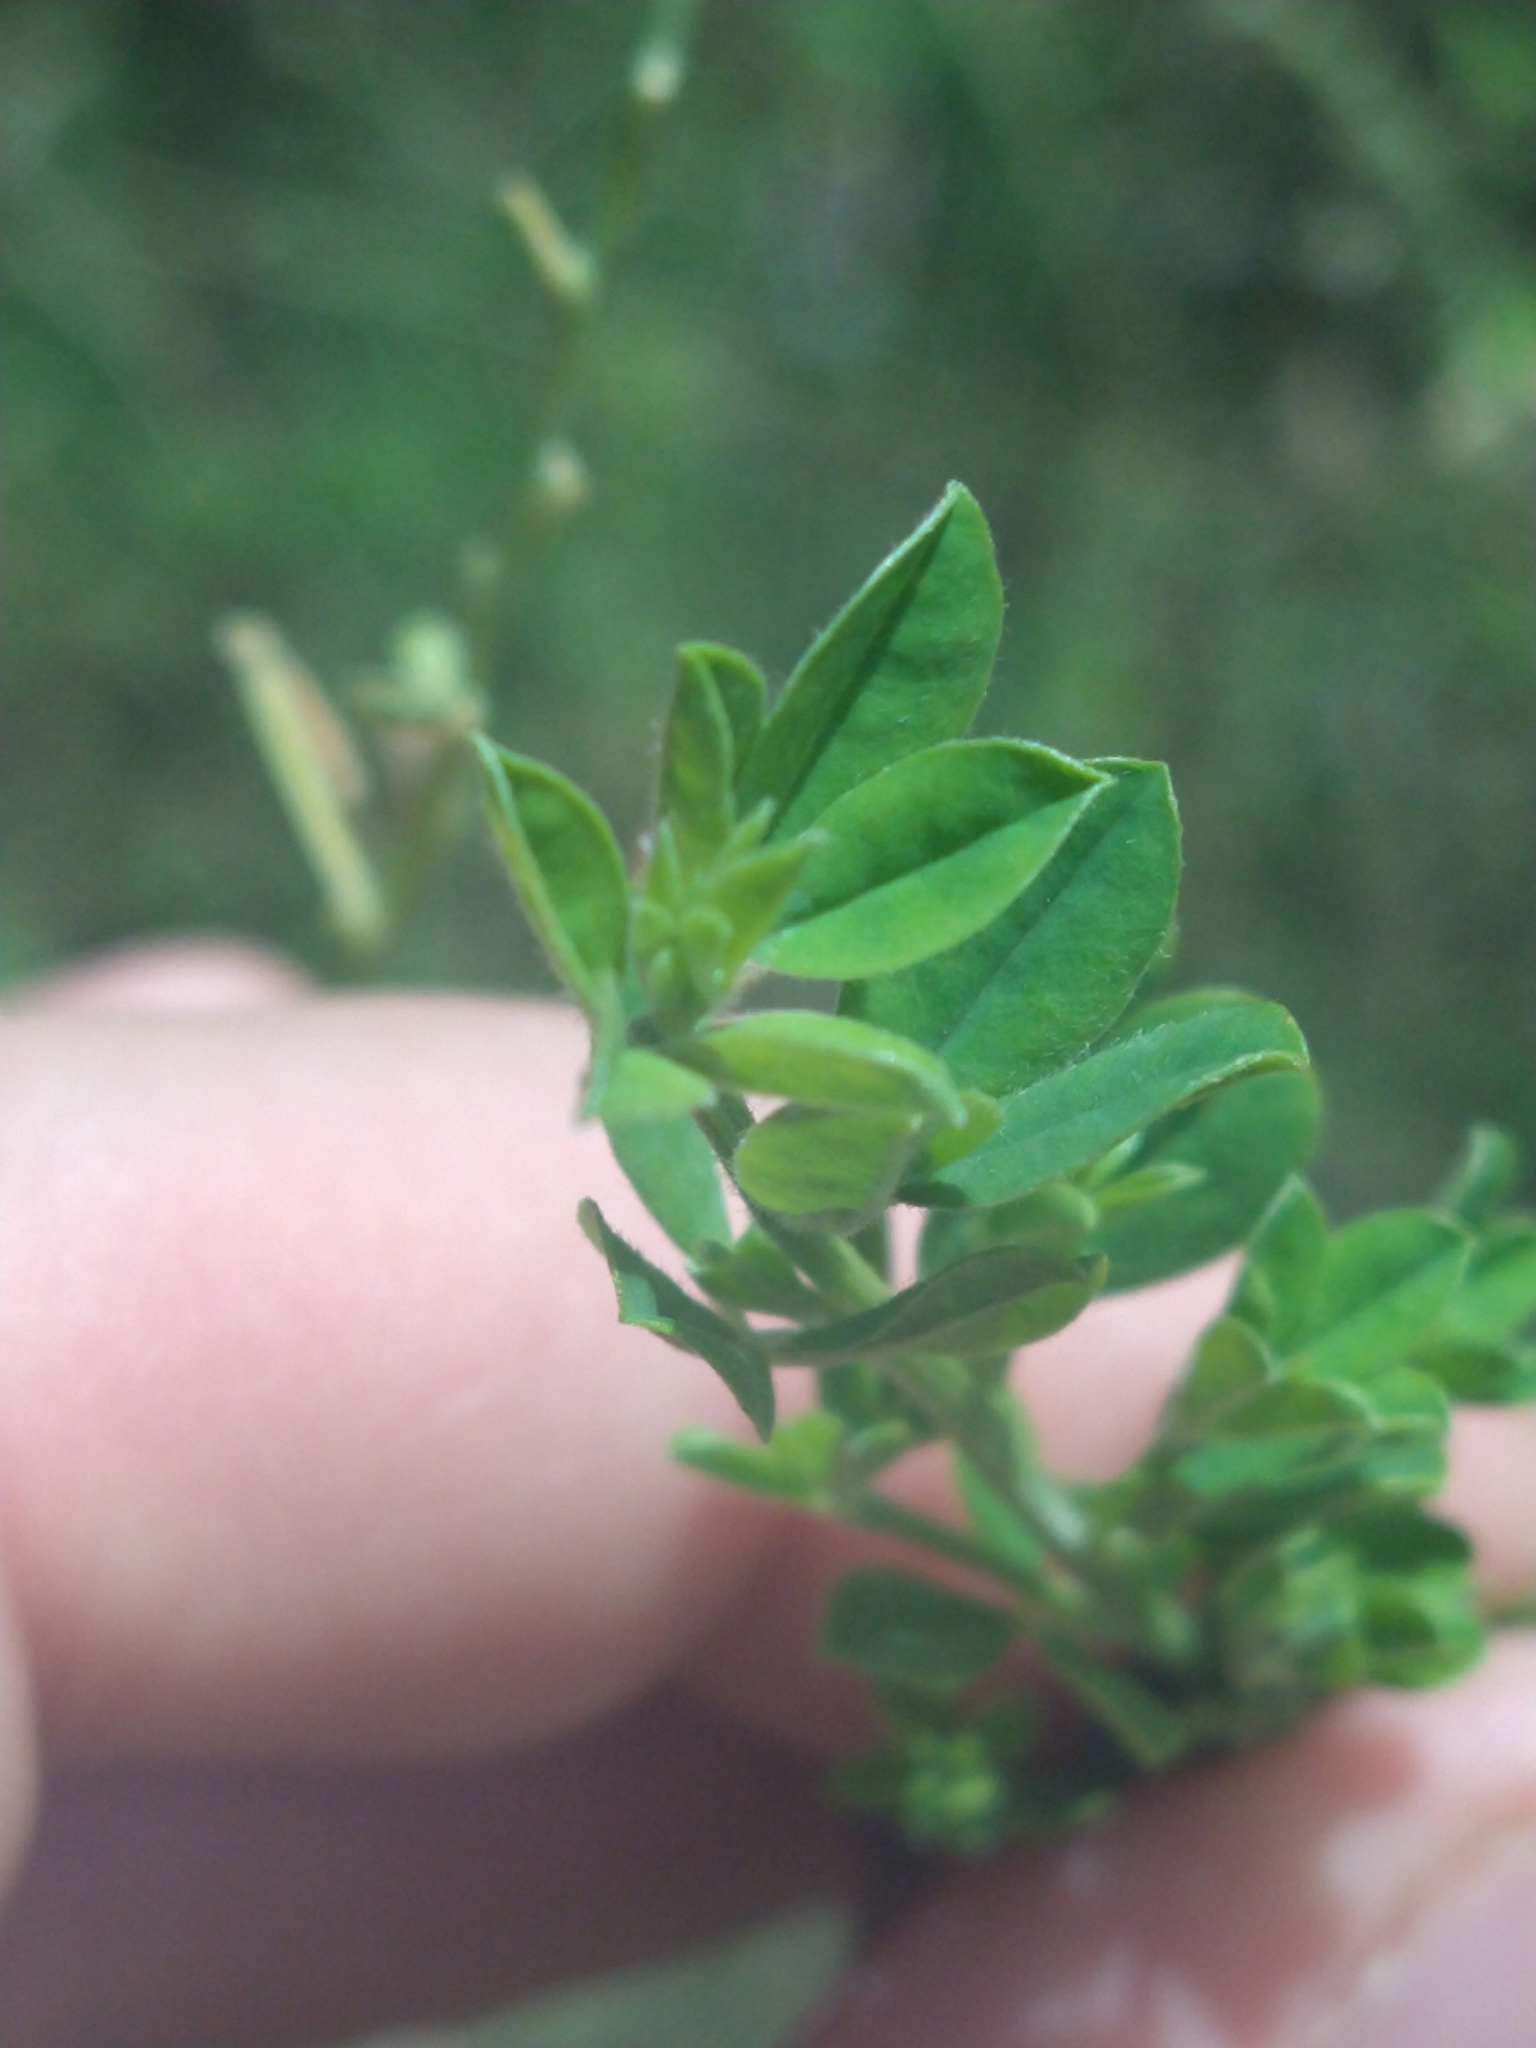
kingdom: Plantae
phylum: Tracheophyta
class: Magnoliopsida
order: Fabales
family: Fabaceae
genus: Genista
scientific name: Genista monspessulana
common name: Montpellier broom
